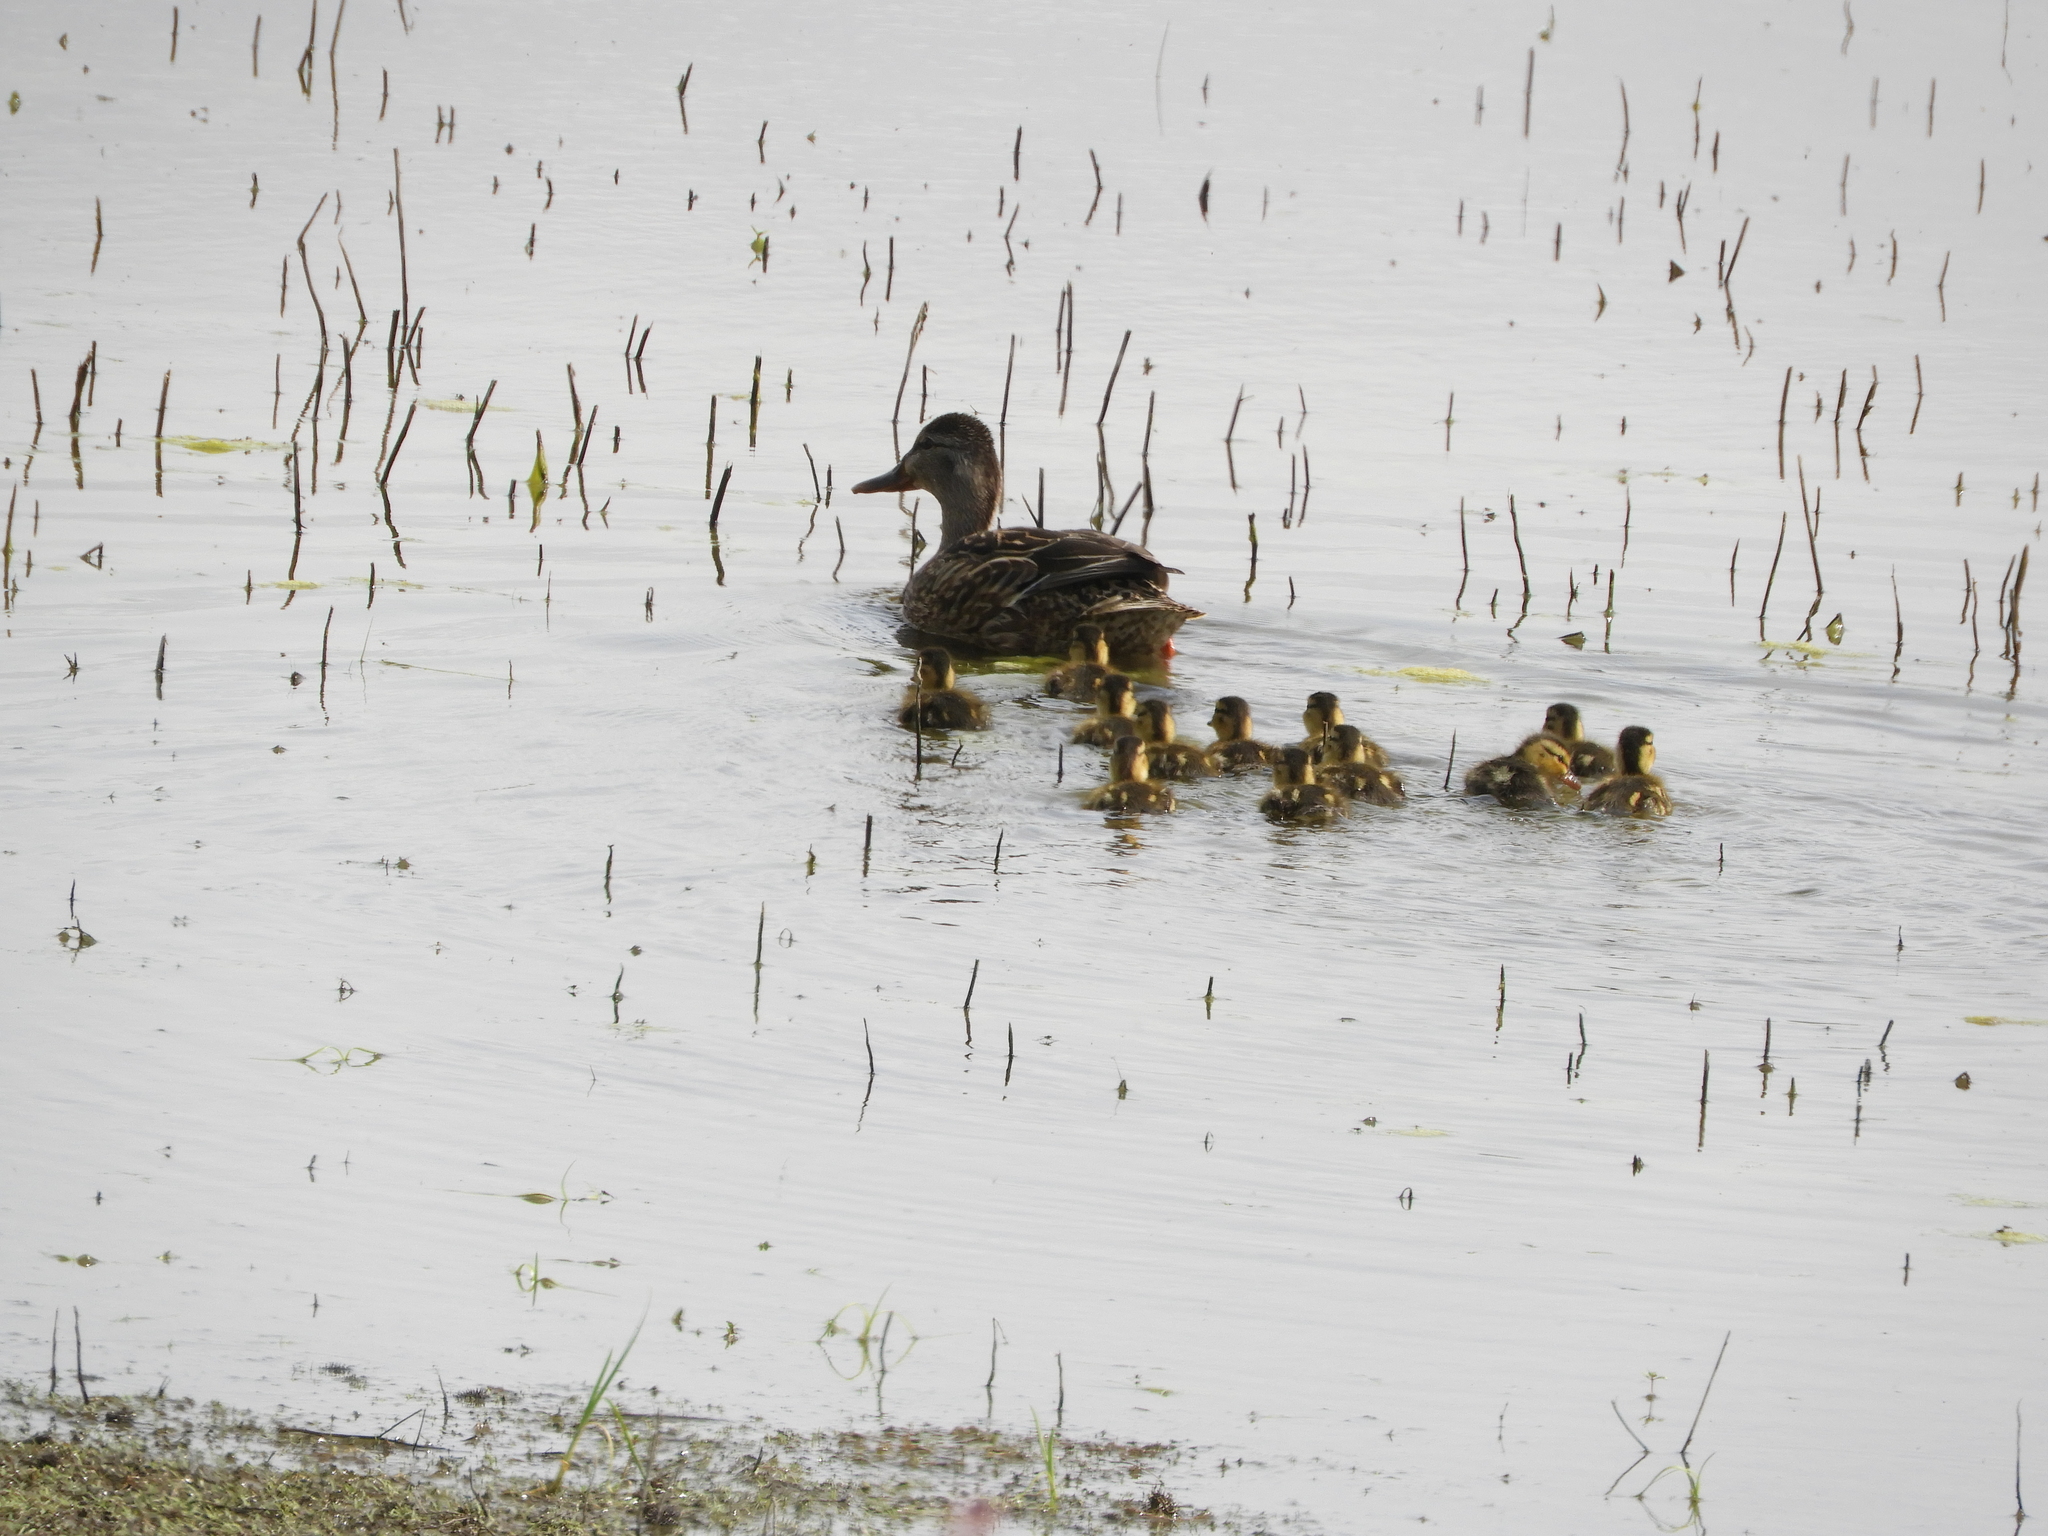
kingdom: Animalia
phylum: Chordata
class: Aves
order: Anseriformes
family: Anatidae
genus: Anas
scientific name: Anas platyrhynchos
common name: Mallard
